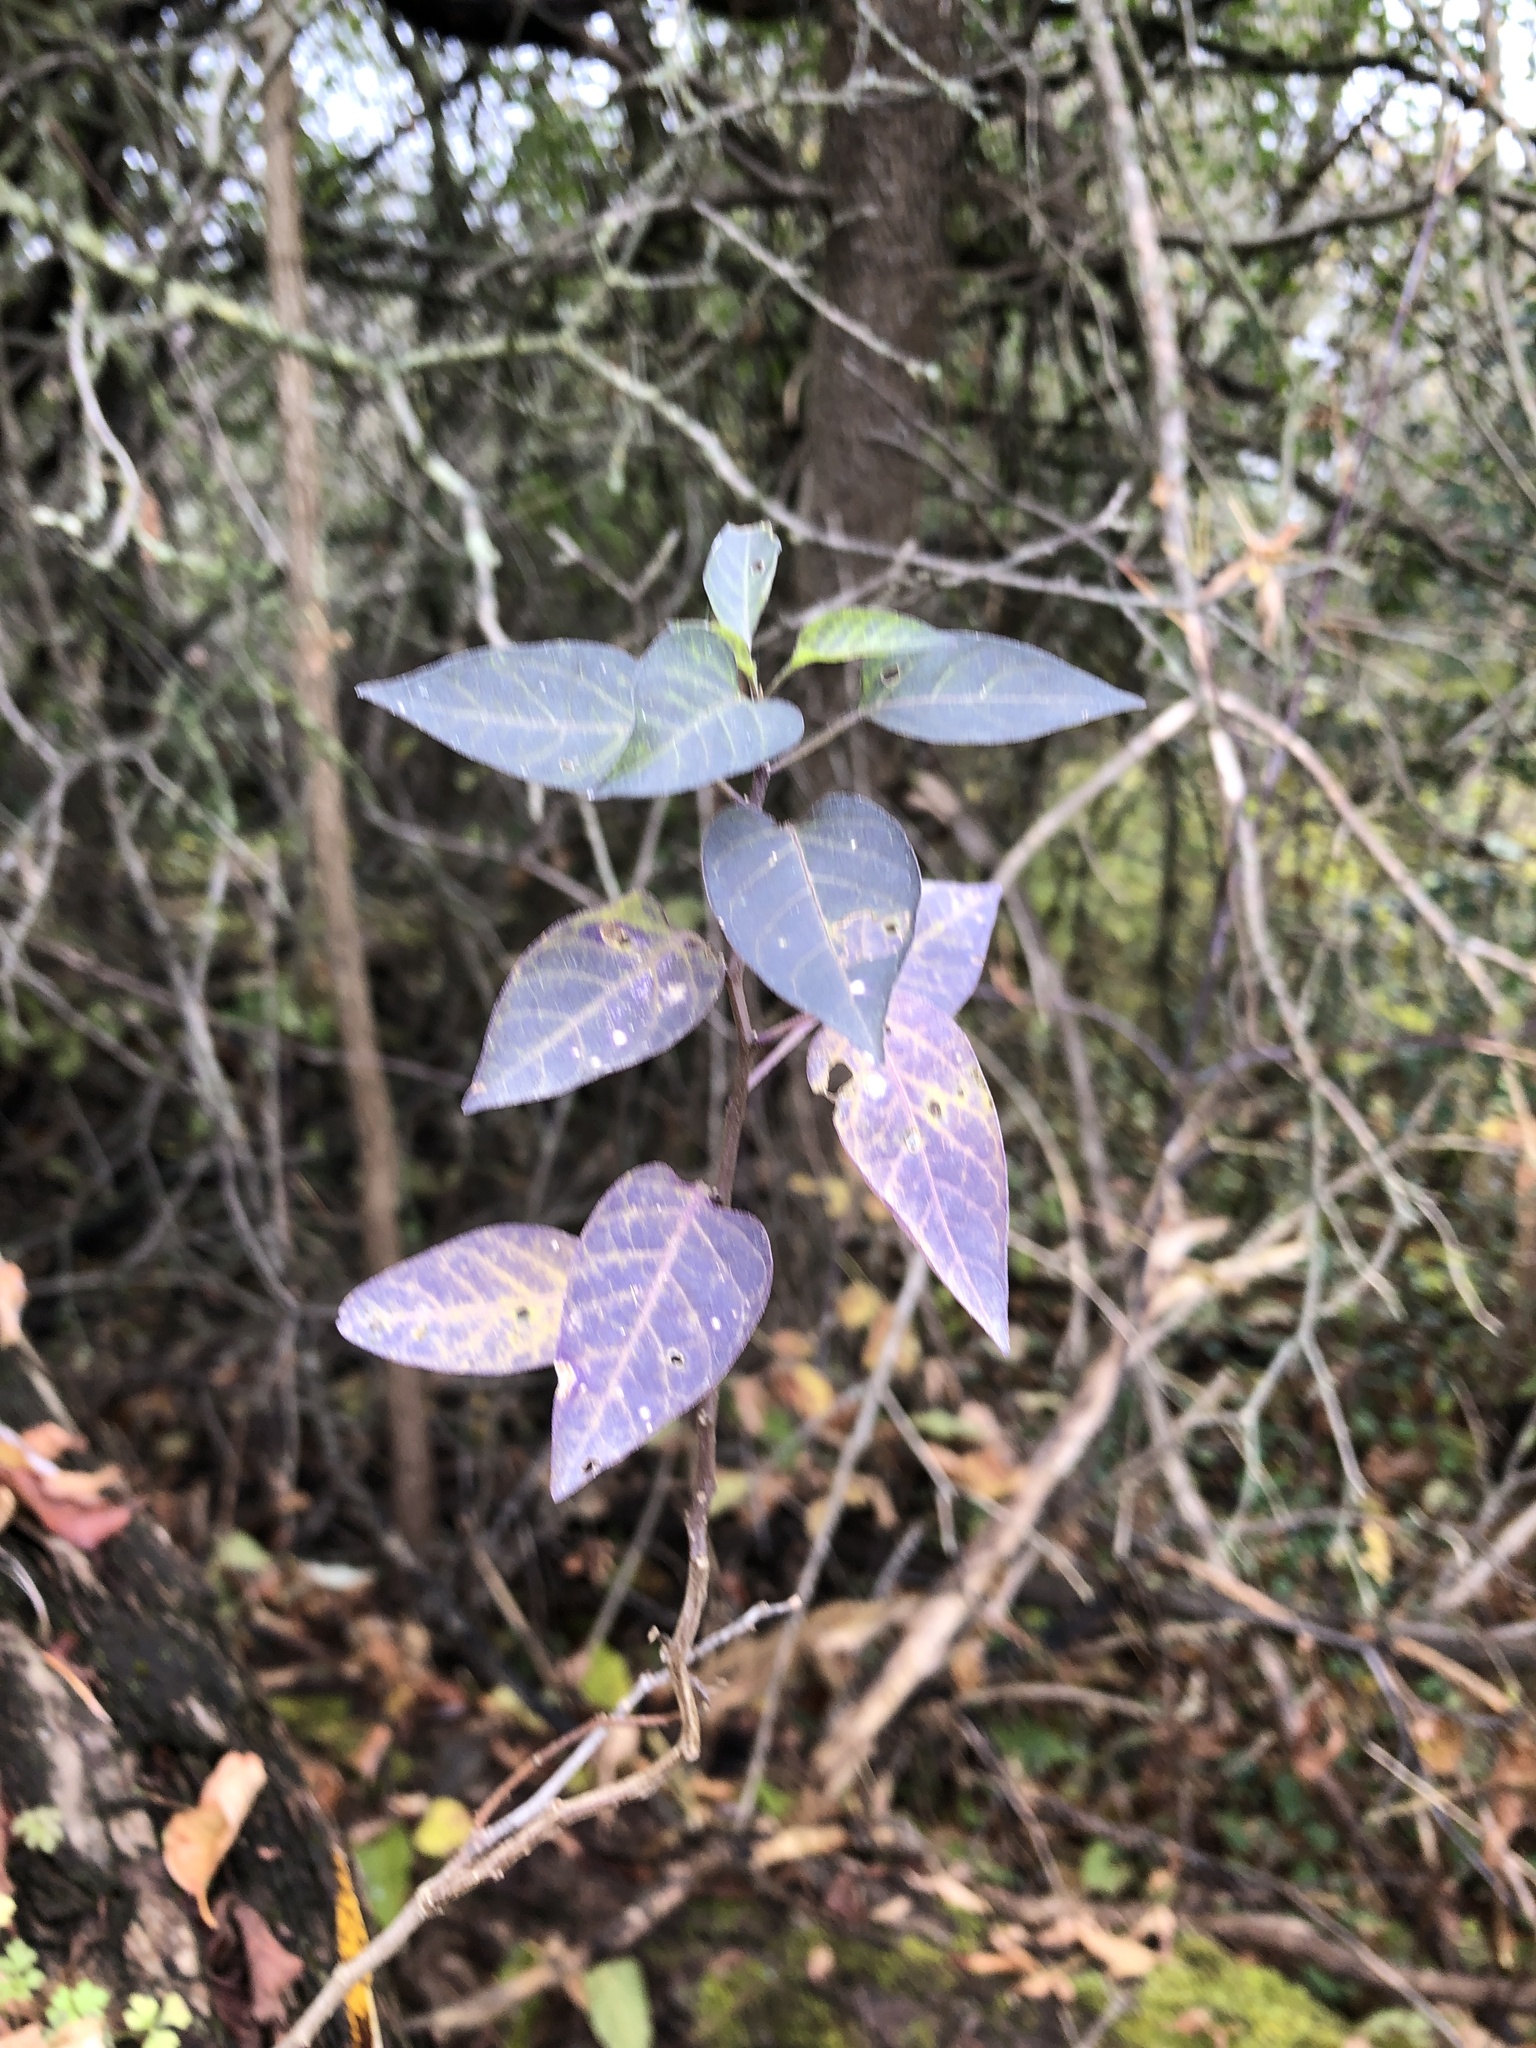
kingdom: Plantae
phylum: Tracheophyta
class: Magnoliopsida
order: Solanales
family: Solanaceae
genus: Solanum
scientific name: Solanum dulcamara
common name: Climbing nightshade
